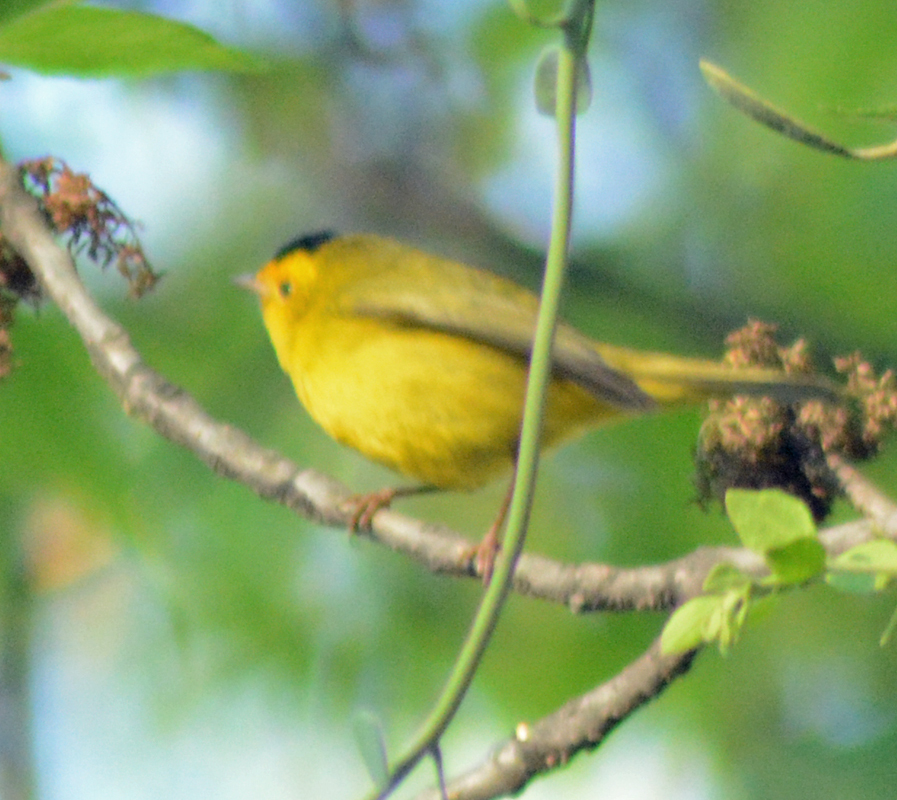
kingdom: Animalia
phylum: Chordata
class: Aves
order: Passeriformes
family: Parulidae
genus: Cardellina
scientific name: Cardellina pusilla
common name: Wilson's warbler
